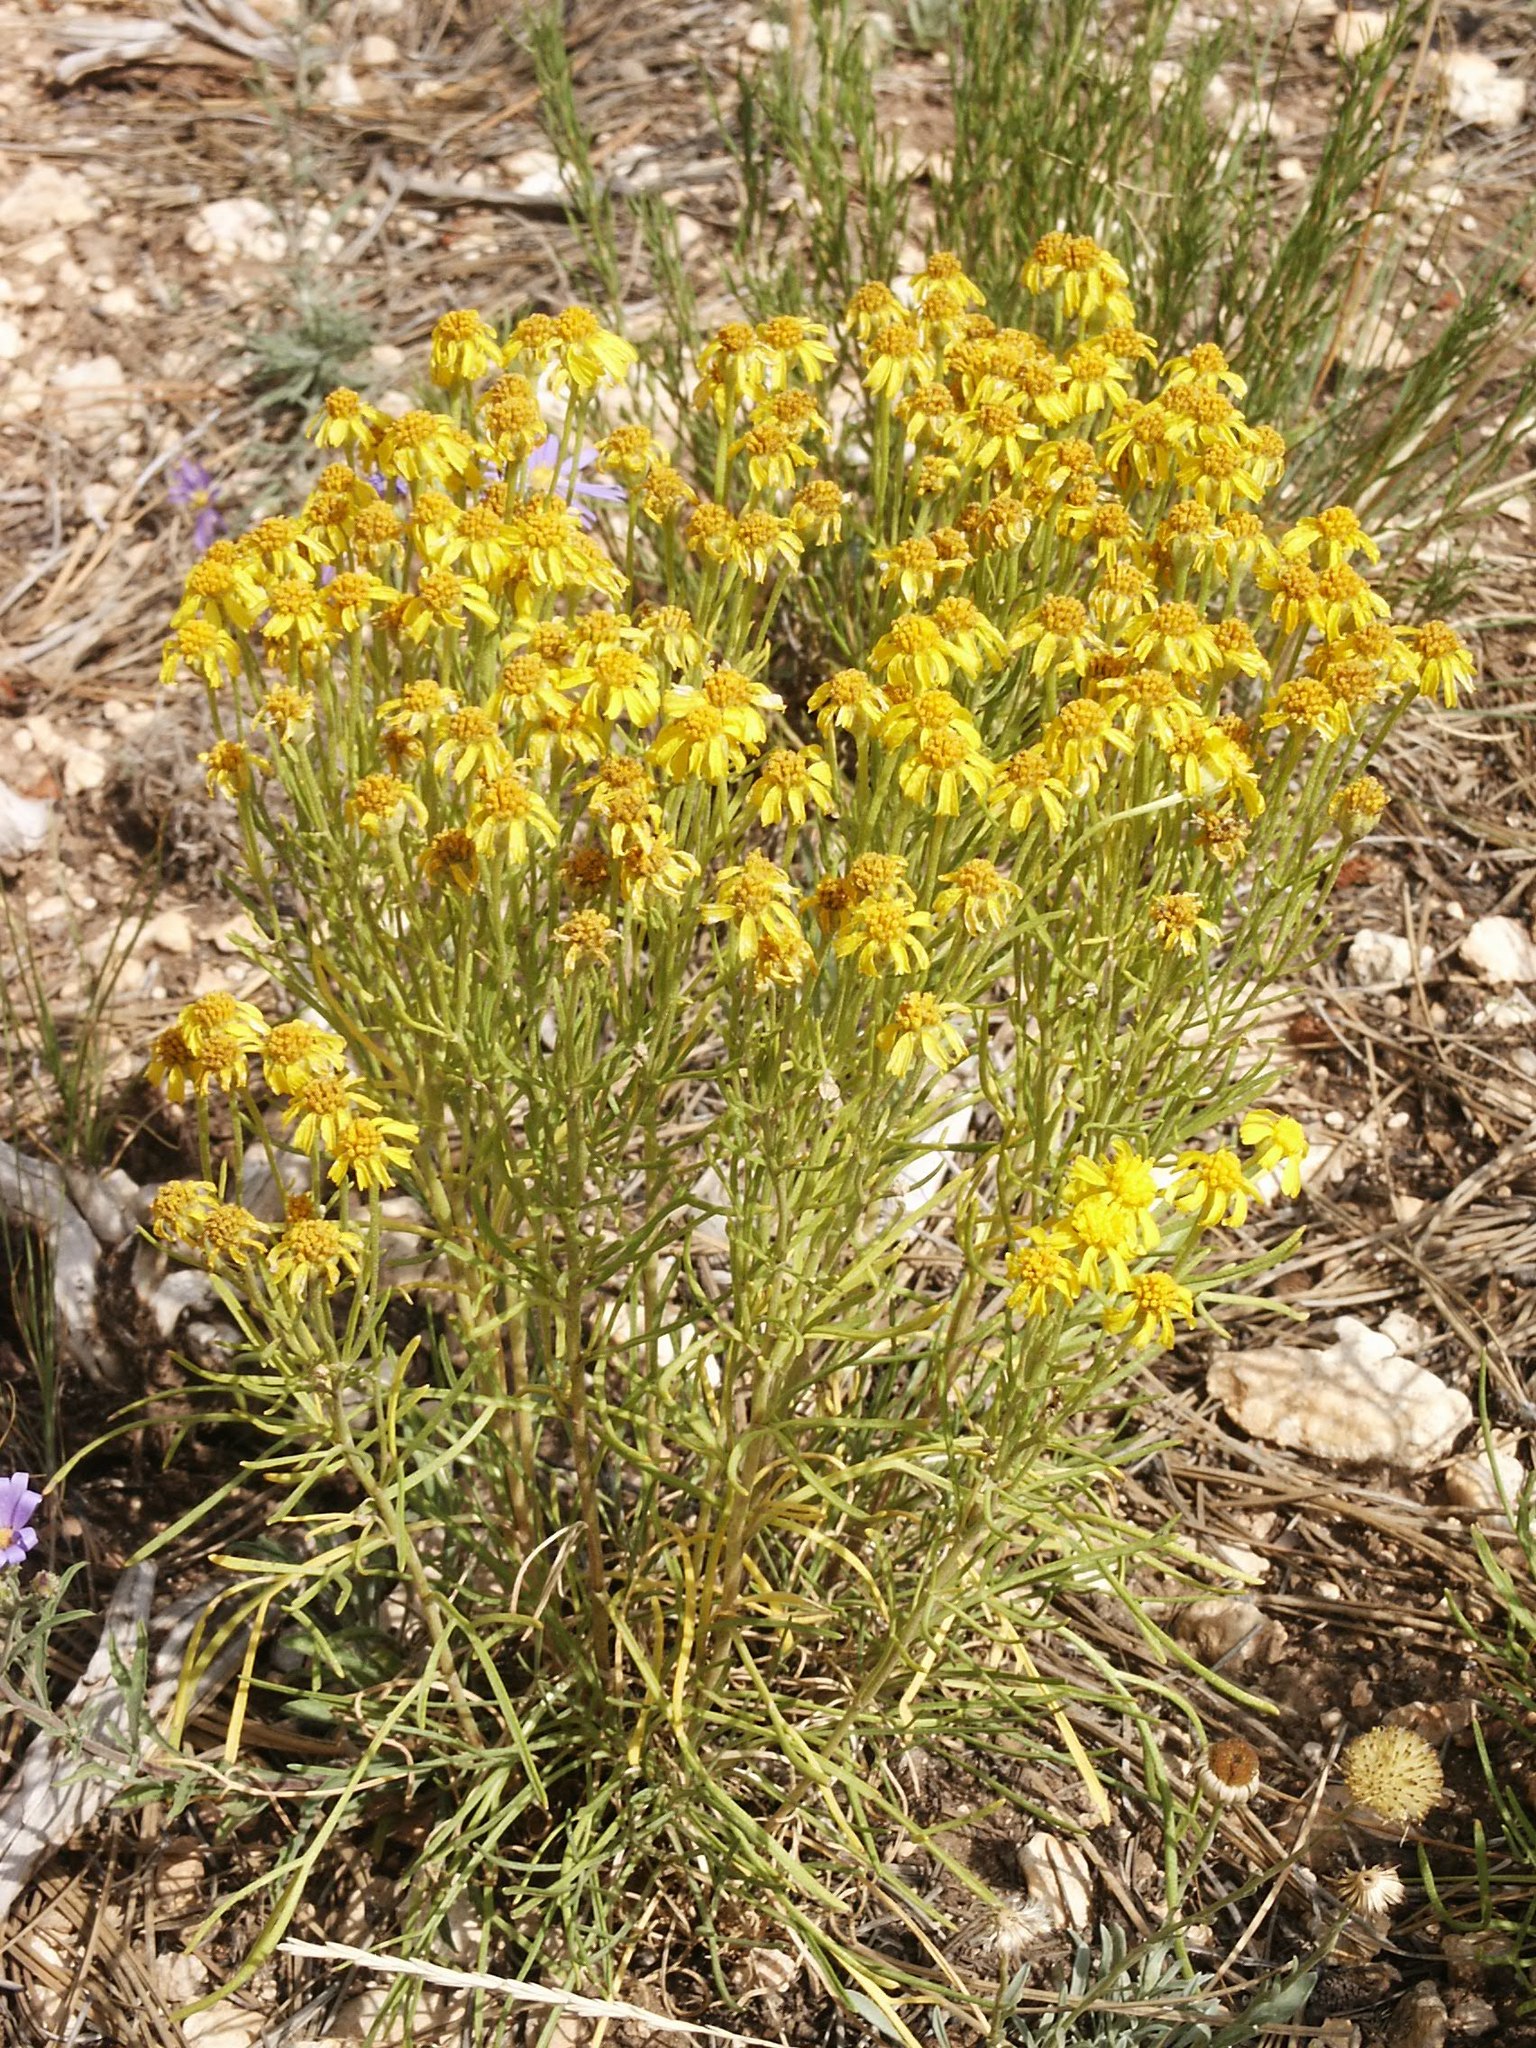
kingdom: Plantae
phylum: Tracheophyta
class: Magnoliopsida
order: Asterales
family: Asteraceae
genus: Hymenoxys
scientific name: Hymenoxys richardsonii
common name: Pingue rubberweed
